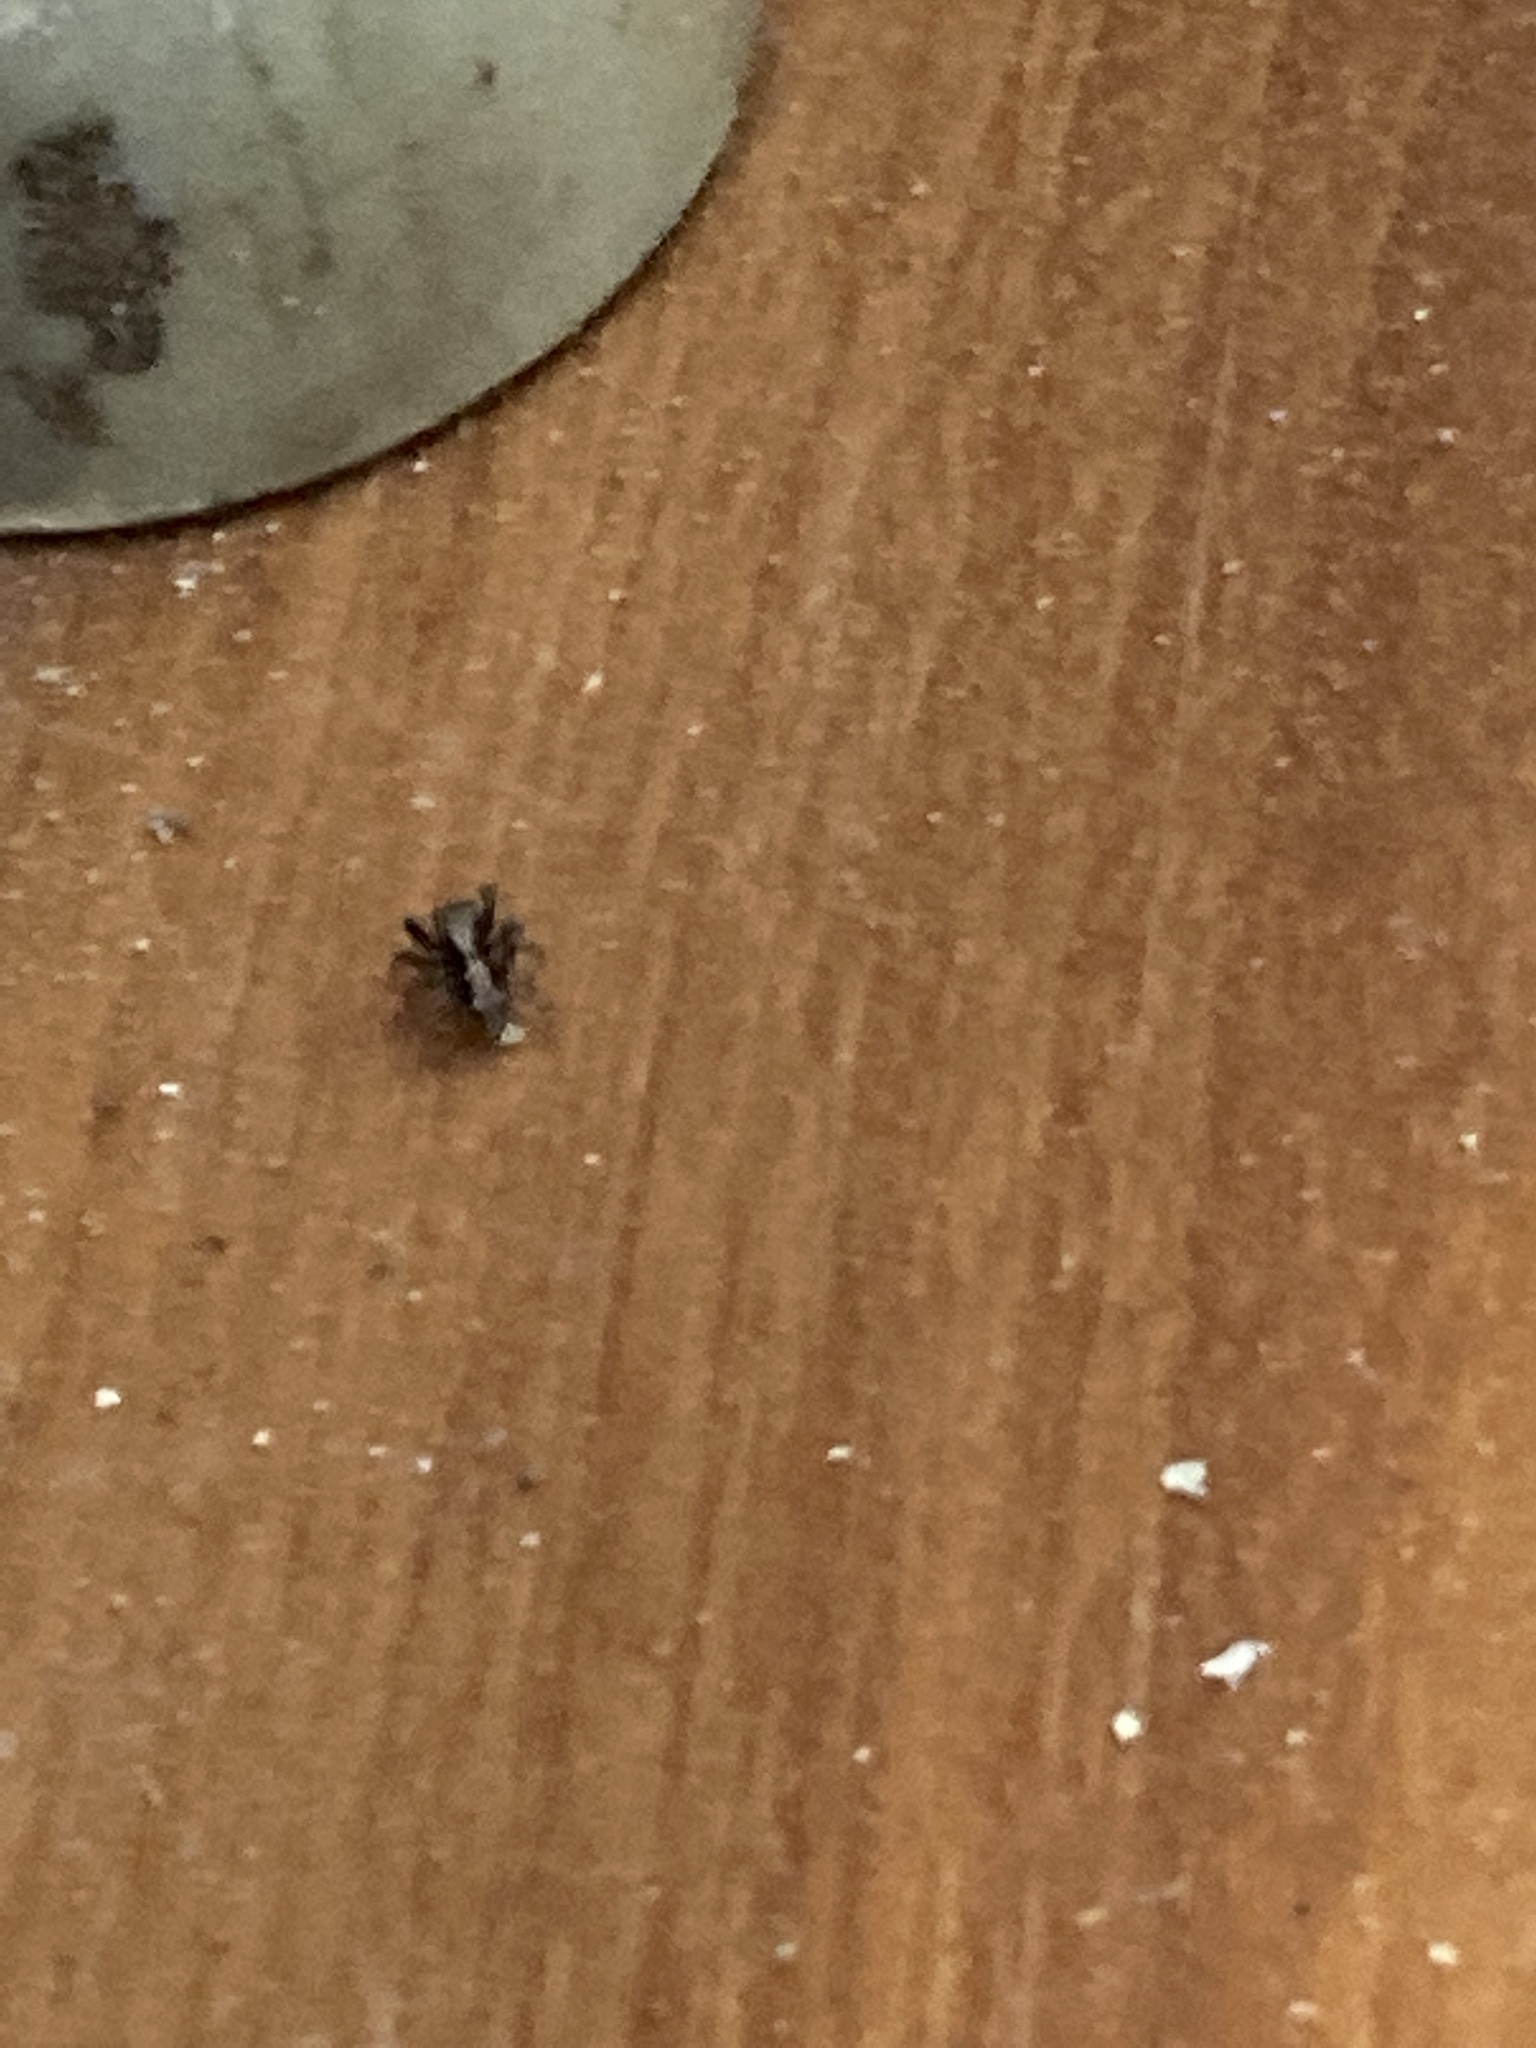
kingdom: Animalia
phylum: Arthropoda
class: Arachnida
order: Araneae
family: Salticidae
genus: Pseudeuophrys
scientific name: Pseudeuophrys lanigera
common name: Jumping spider
